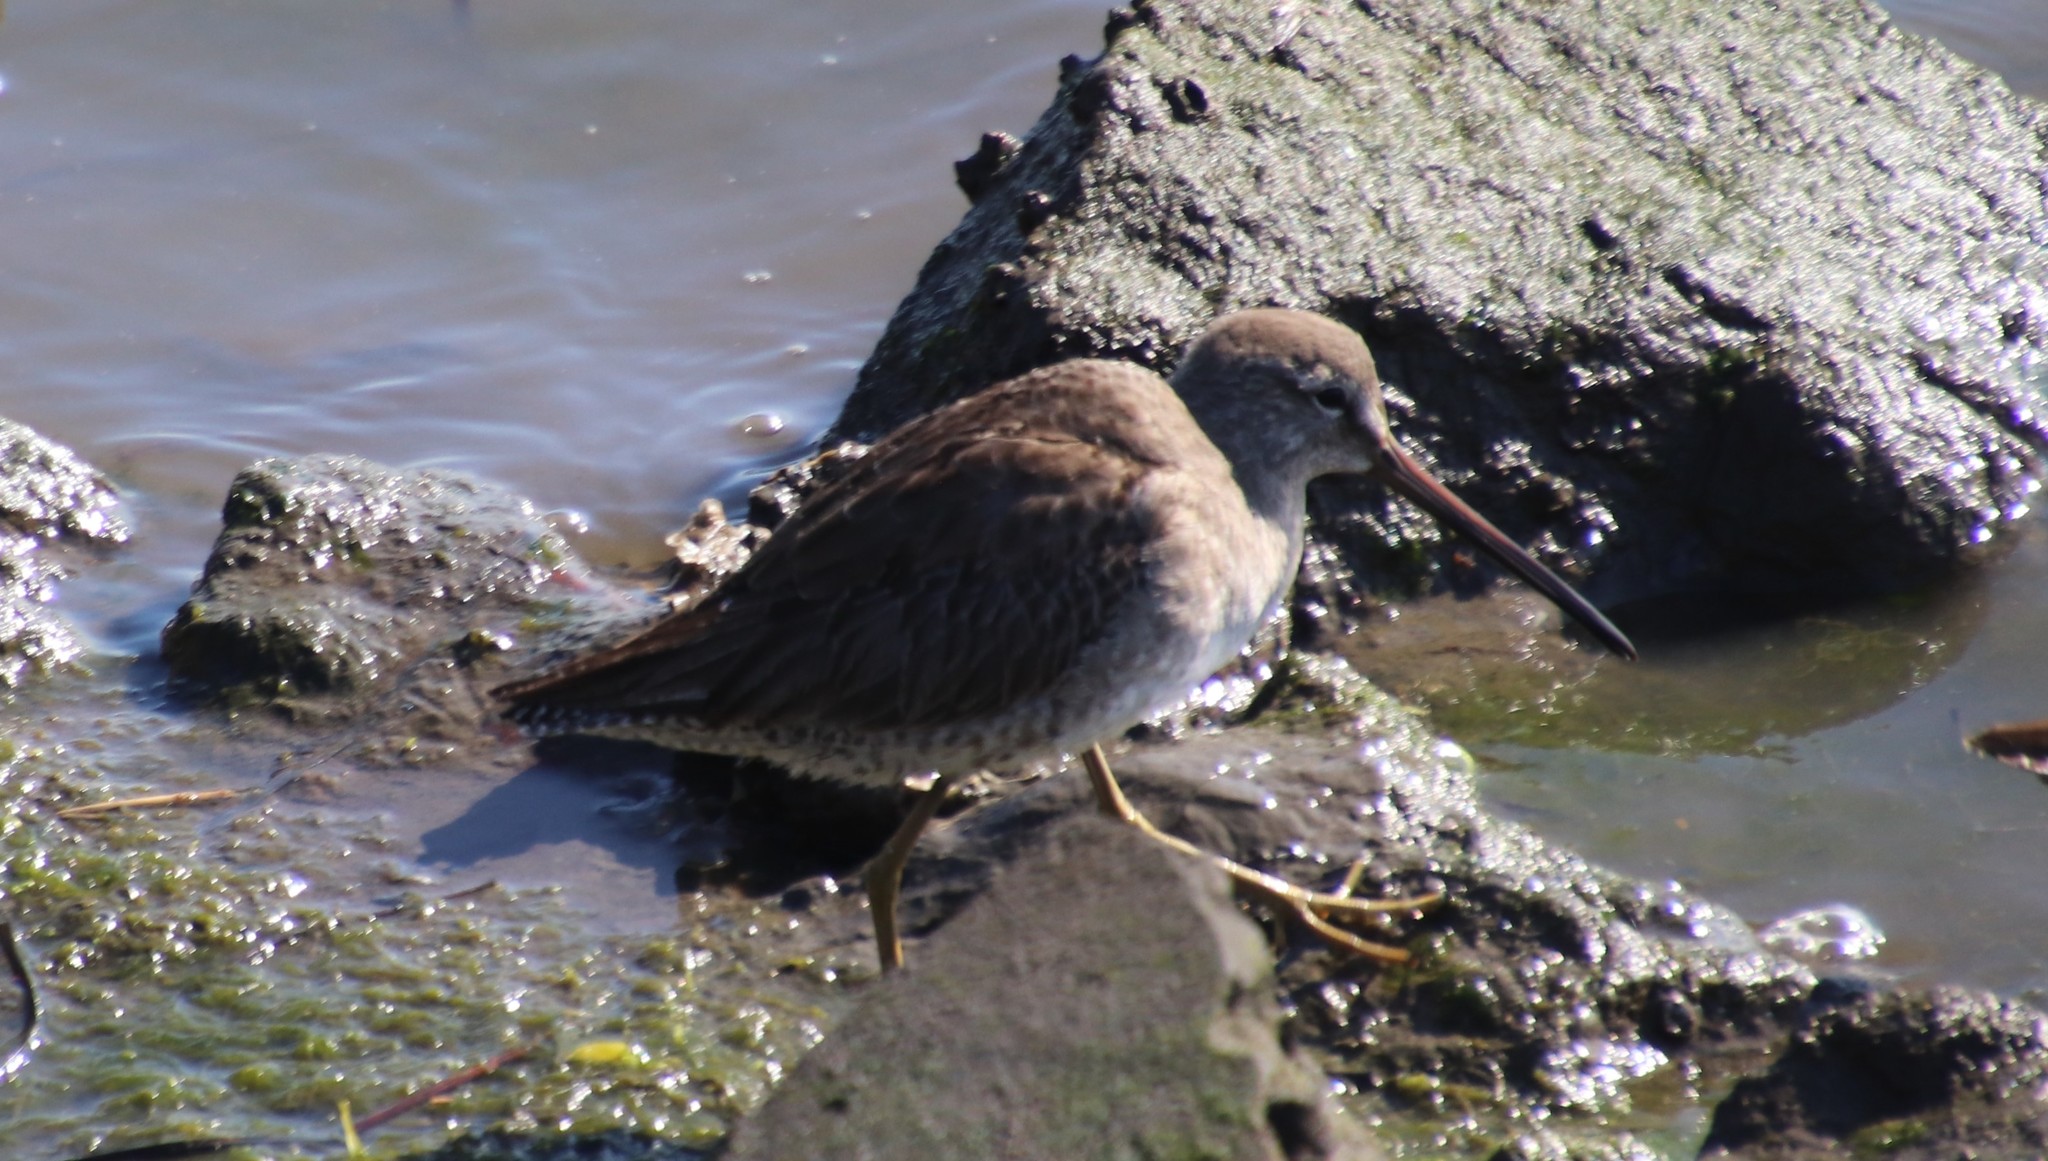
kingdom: Animalia
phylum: Chordata
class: Aves
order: Charadriiformes
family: Scolopacidae
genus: Limnodromus
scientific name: Limnodromus scolopaceus
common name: Long-billed dowitcher
